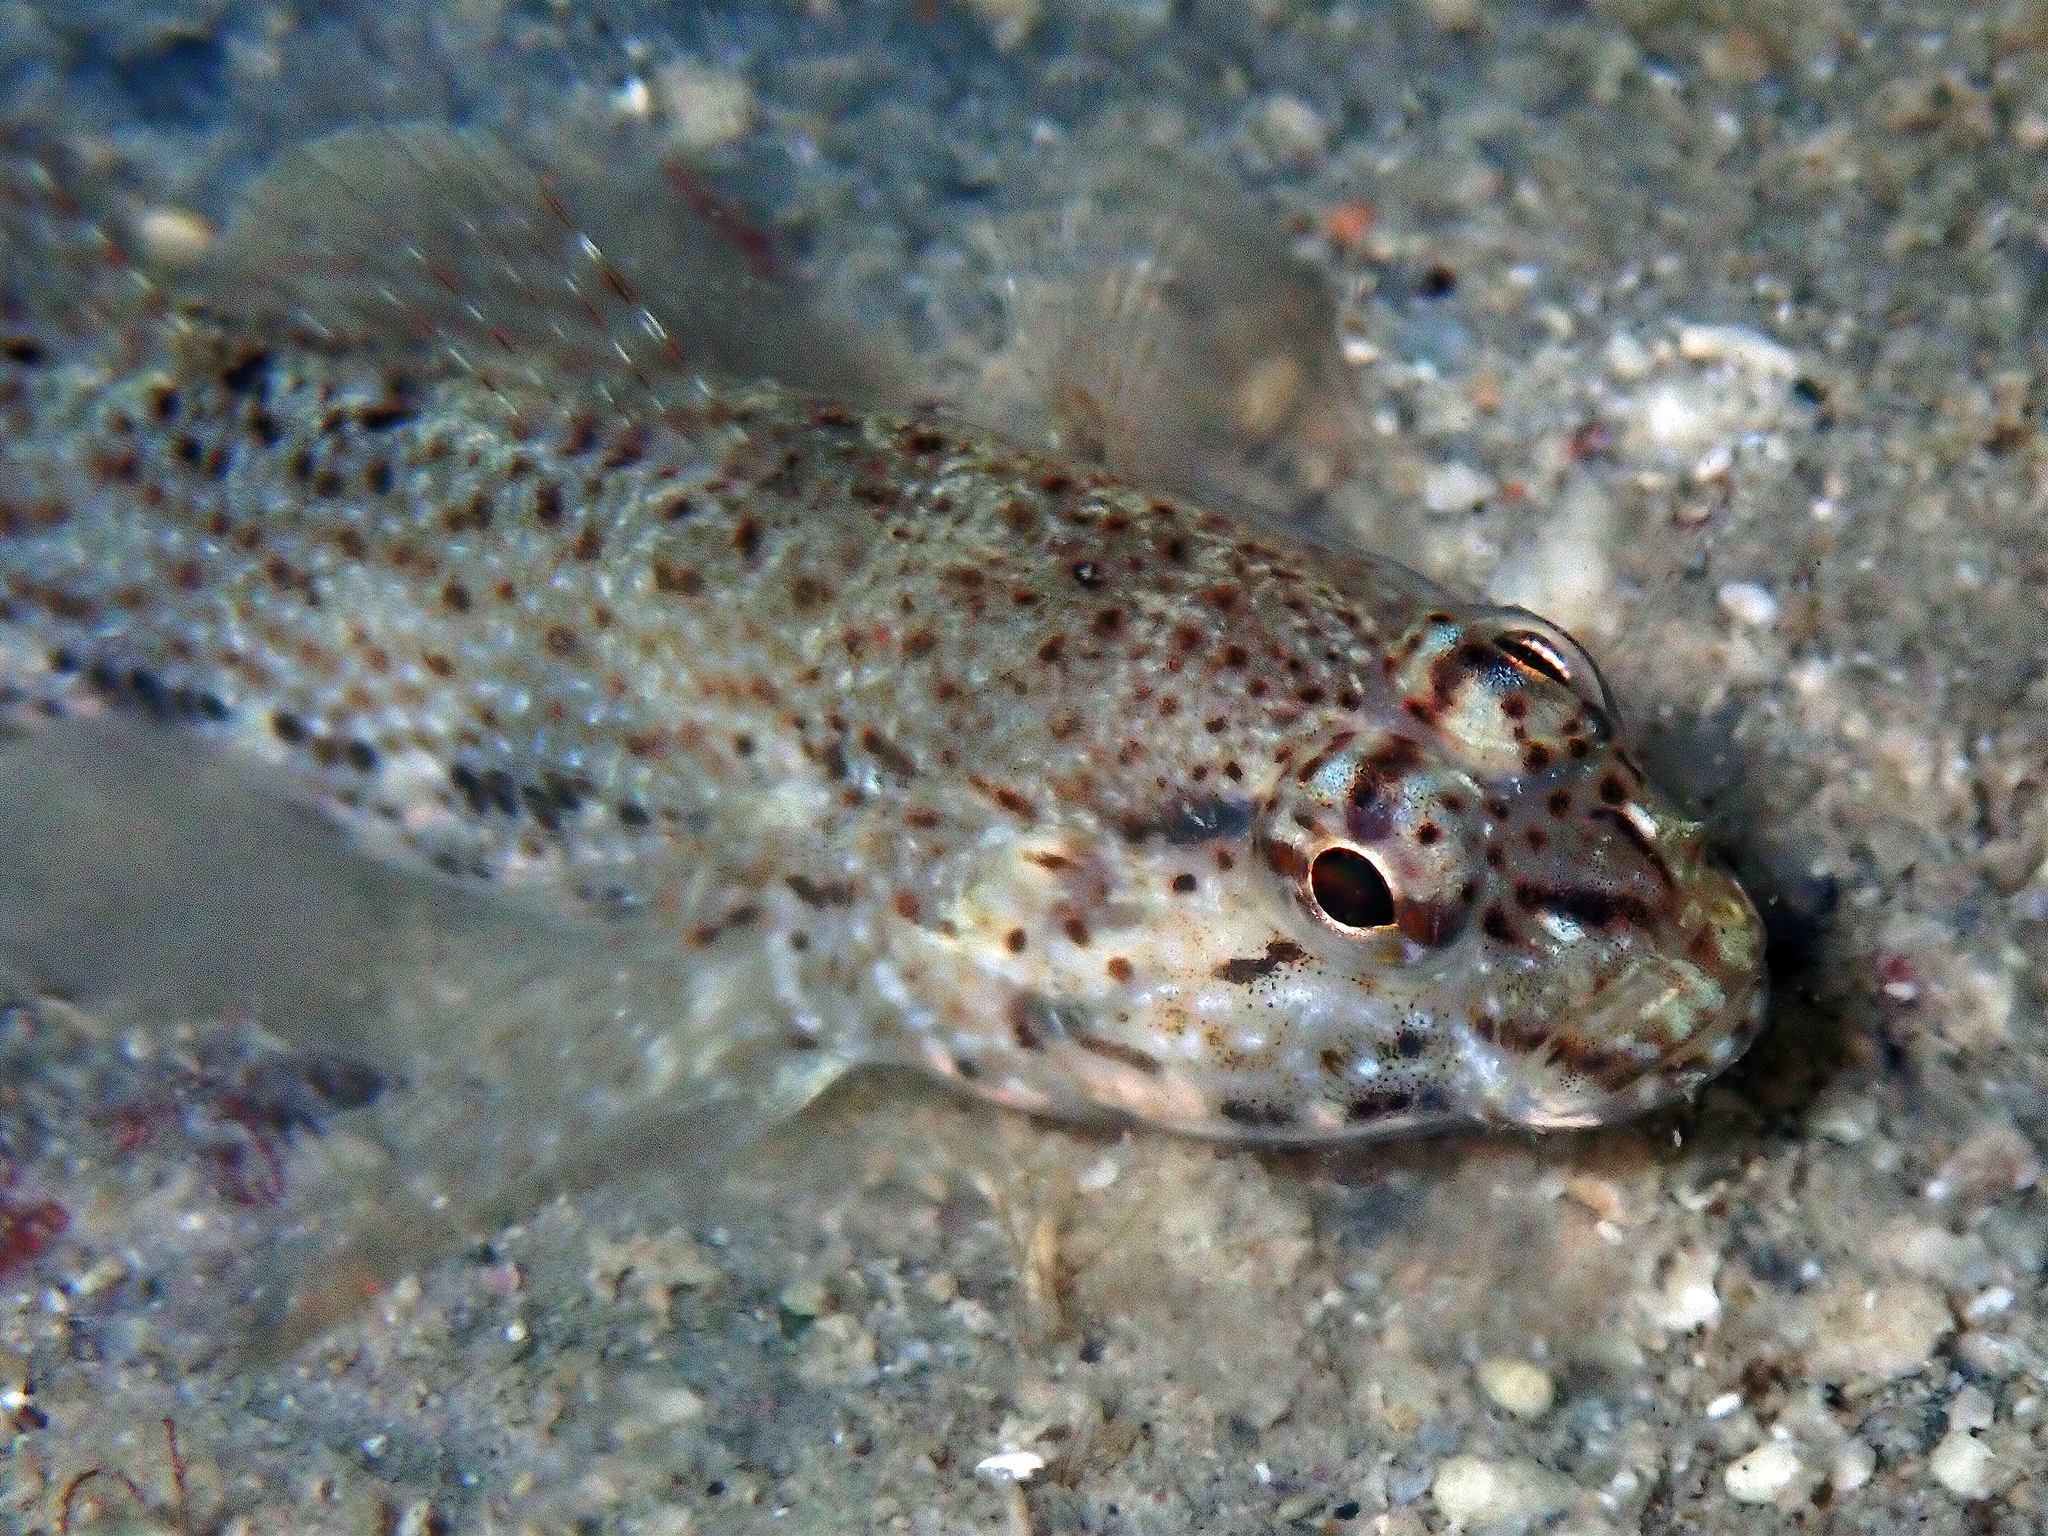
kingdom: Animalia
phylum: Chordata
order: Perciformes
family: Gobiidae
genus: Gobius
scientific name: Gobius incognitus
